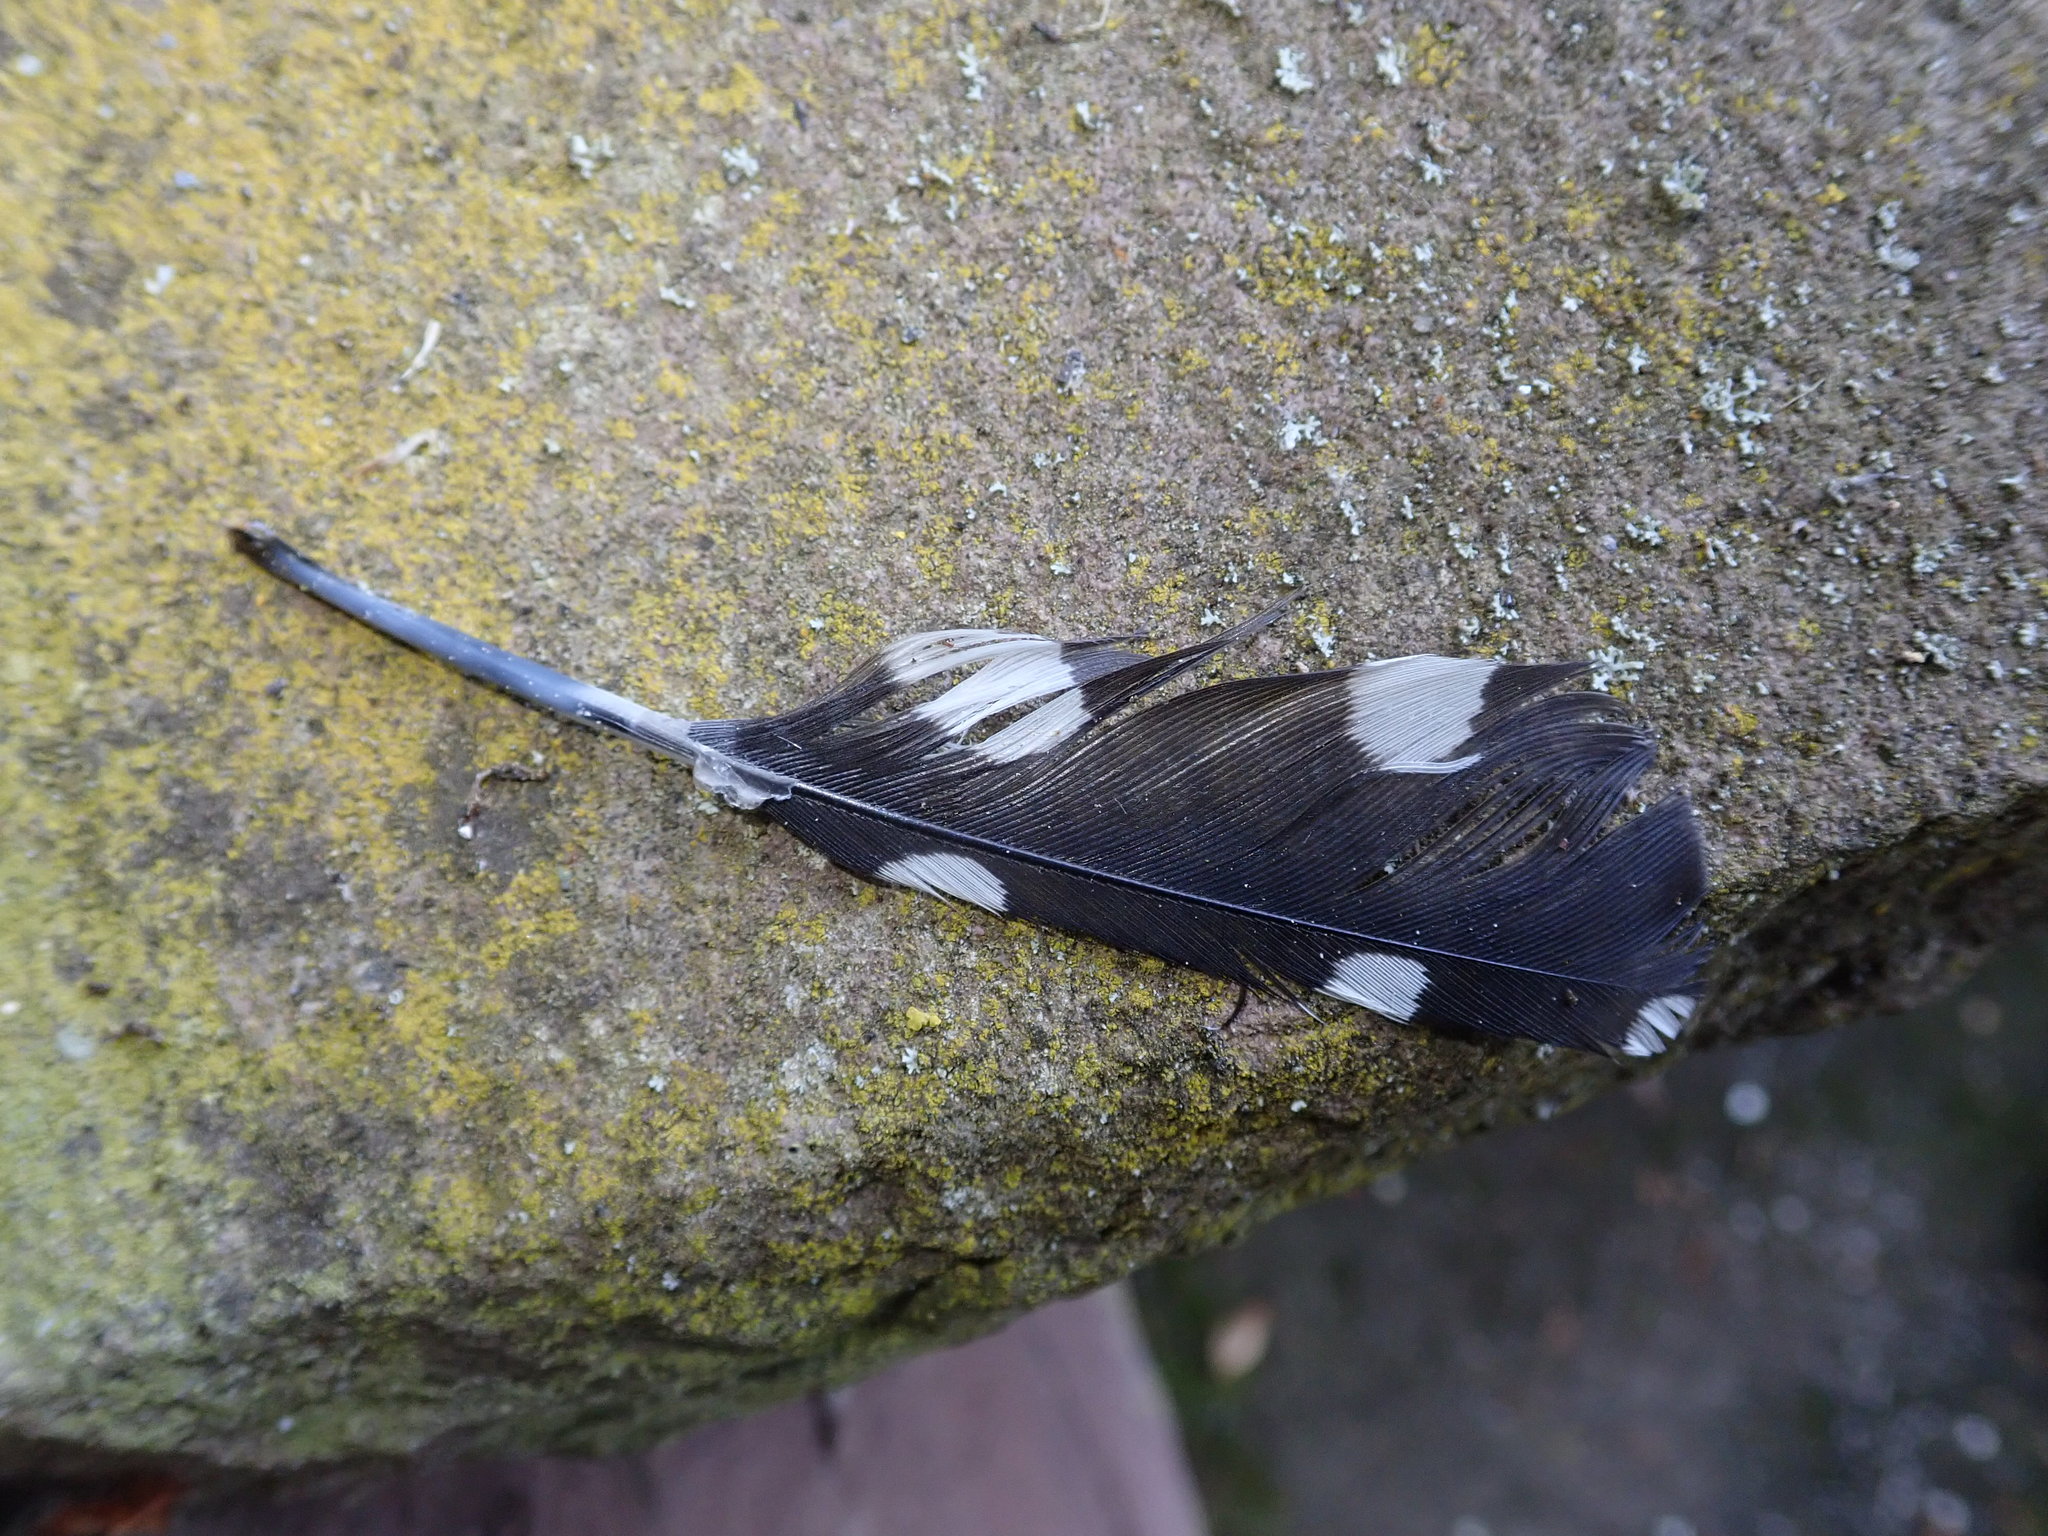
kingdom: Animalia
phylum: Chordata
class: Aves
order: Piciformes
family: Picidae
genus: Dendrocopos
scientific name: Dendrocopos major
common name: Great spotted woodpecker
